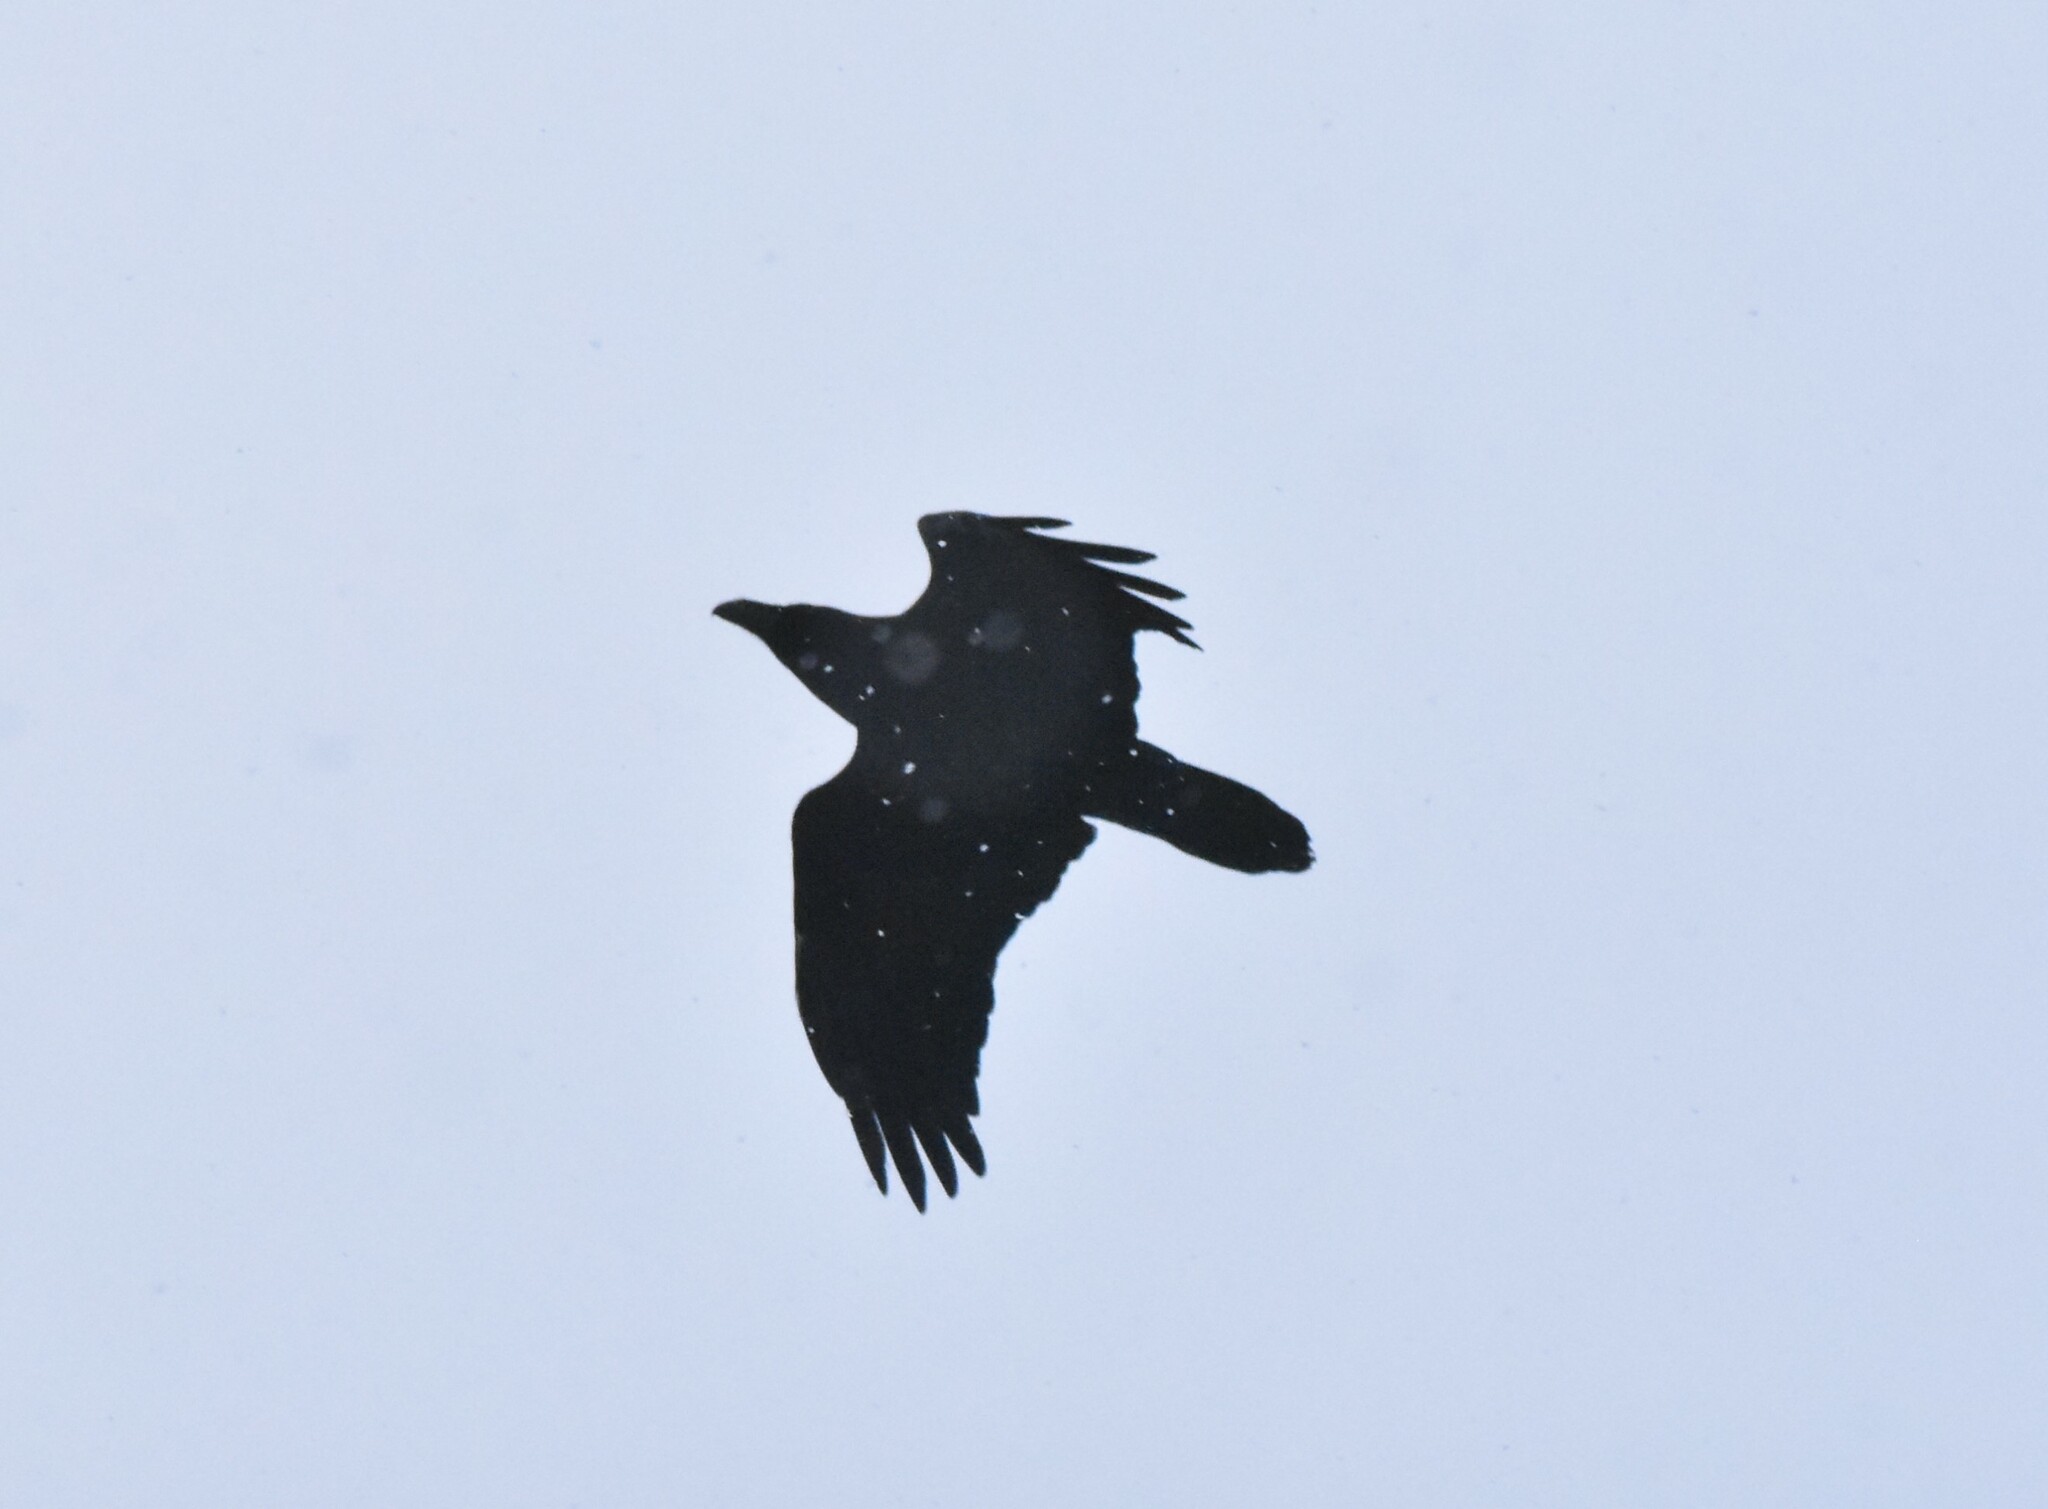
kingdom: Animalia
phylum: Chordata
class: Aves
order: Passeriformes
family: Corvidae
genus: Corvus
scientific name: Corvus corax
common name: Common raven
